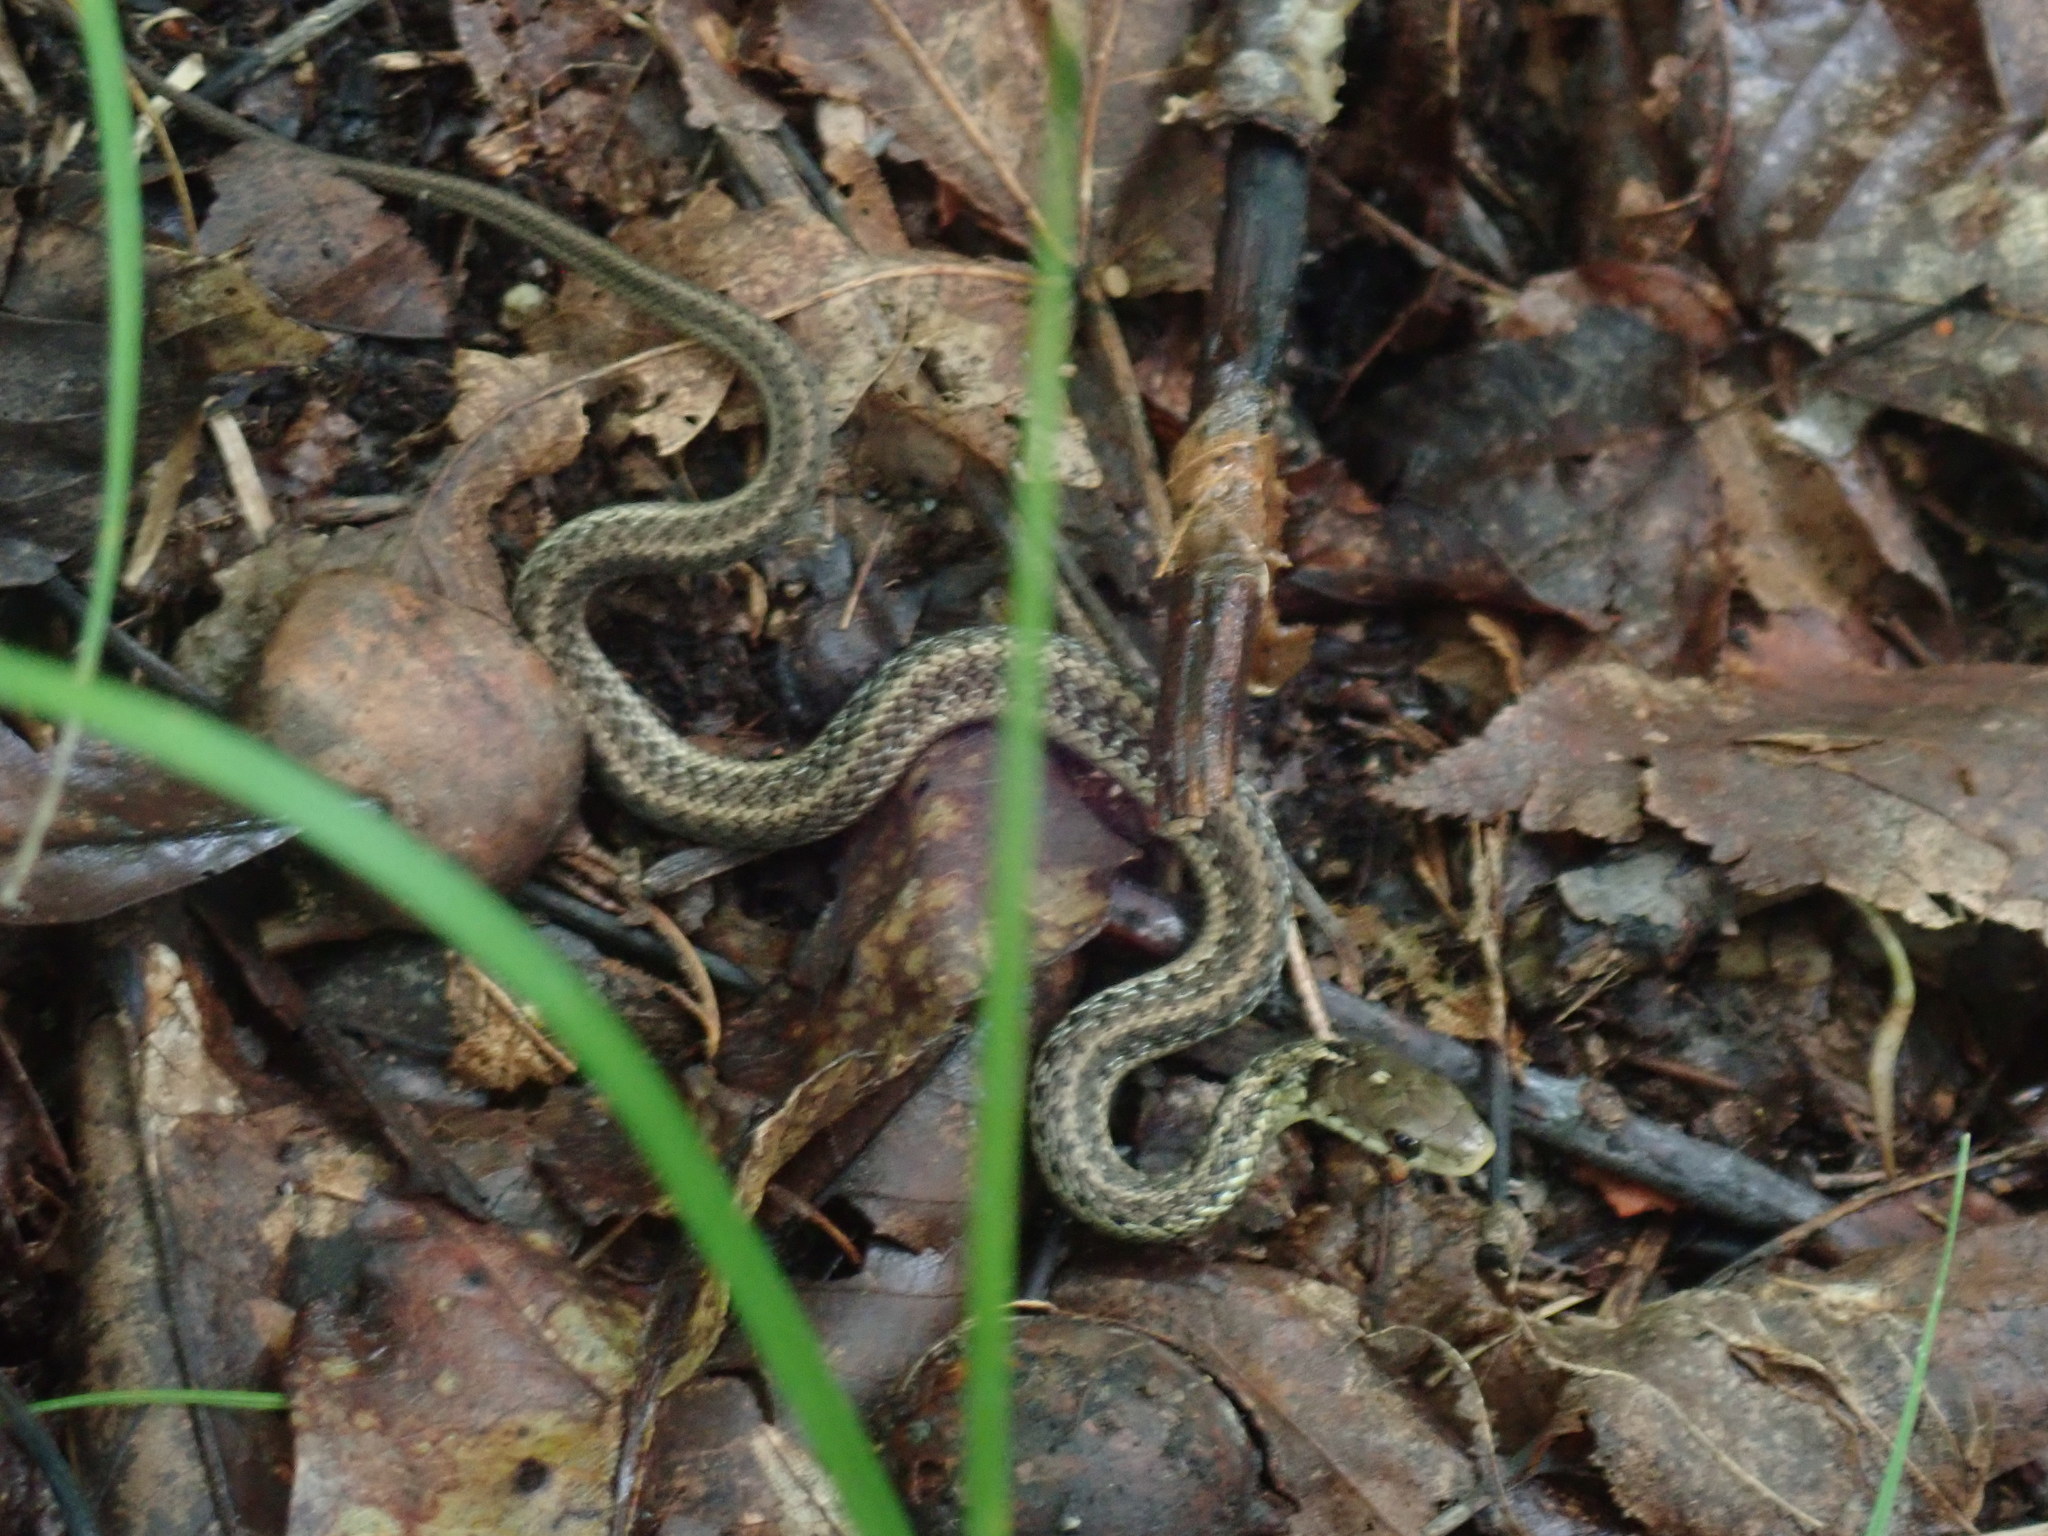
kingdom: Animalia
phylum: Chordata
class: Squamata
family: Colubridae
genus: Thamnophis
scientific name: Thamnophis sirtalis
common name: Common garter snake
